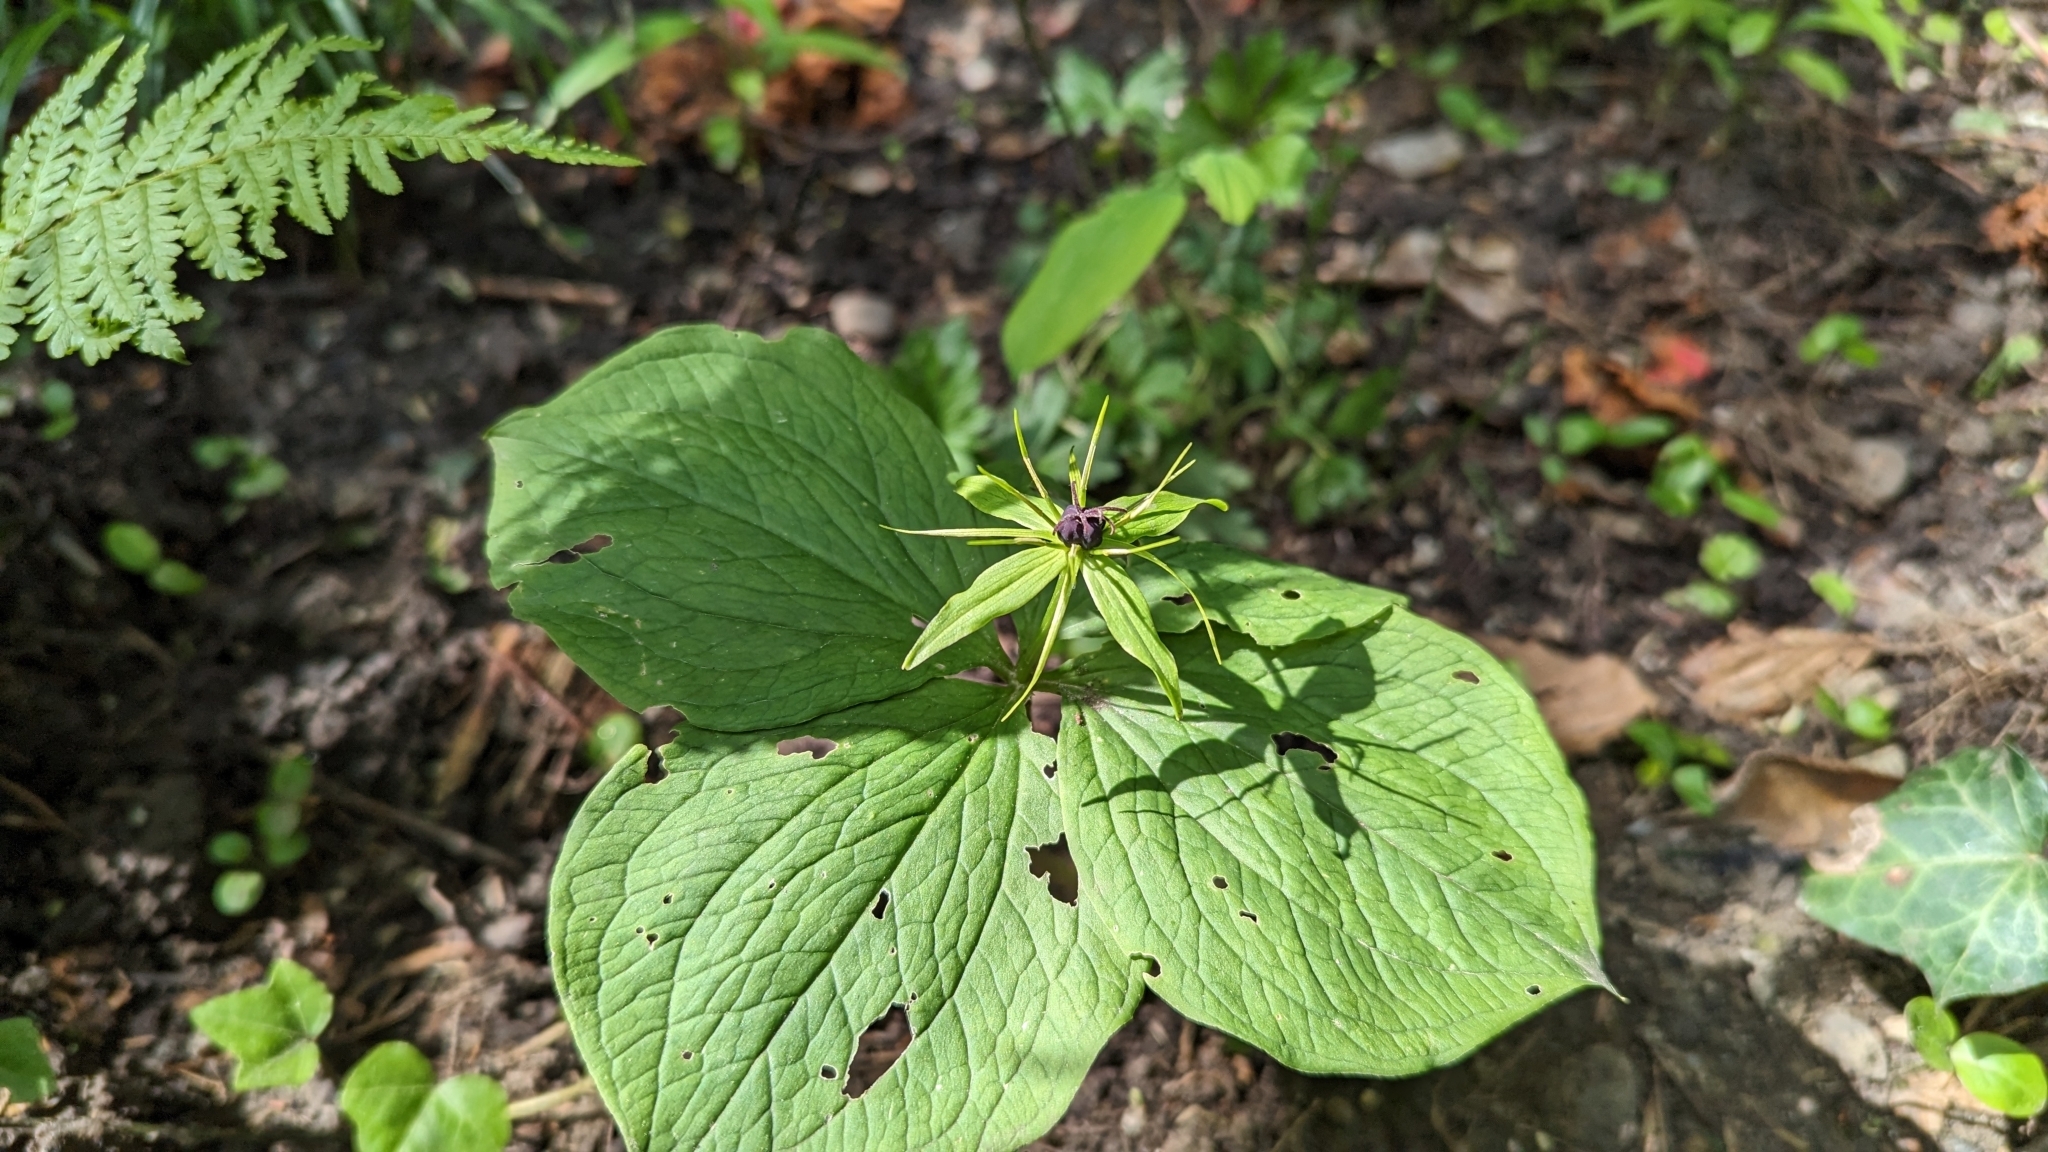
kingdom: Plantae
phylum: Tracheophyta
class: Liliopsida
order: Liliales
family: Melanthiaceae
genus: Paris
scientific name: Paris quadrifolia
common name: Herb-paris
